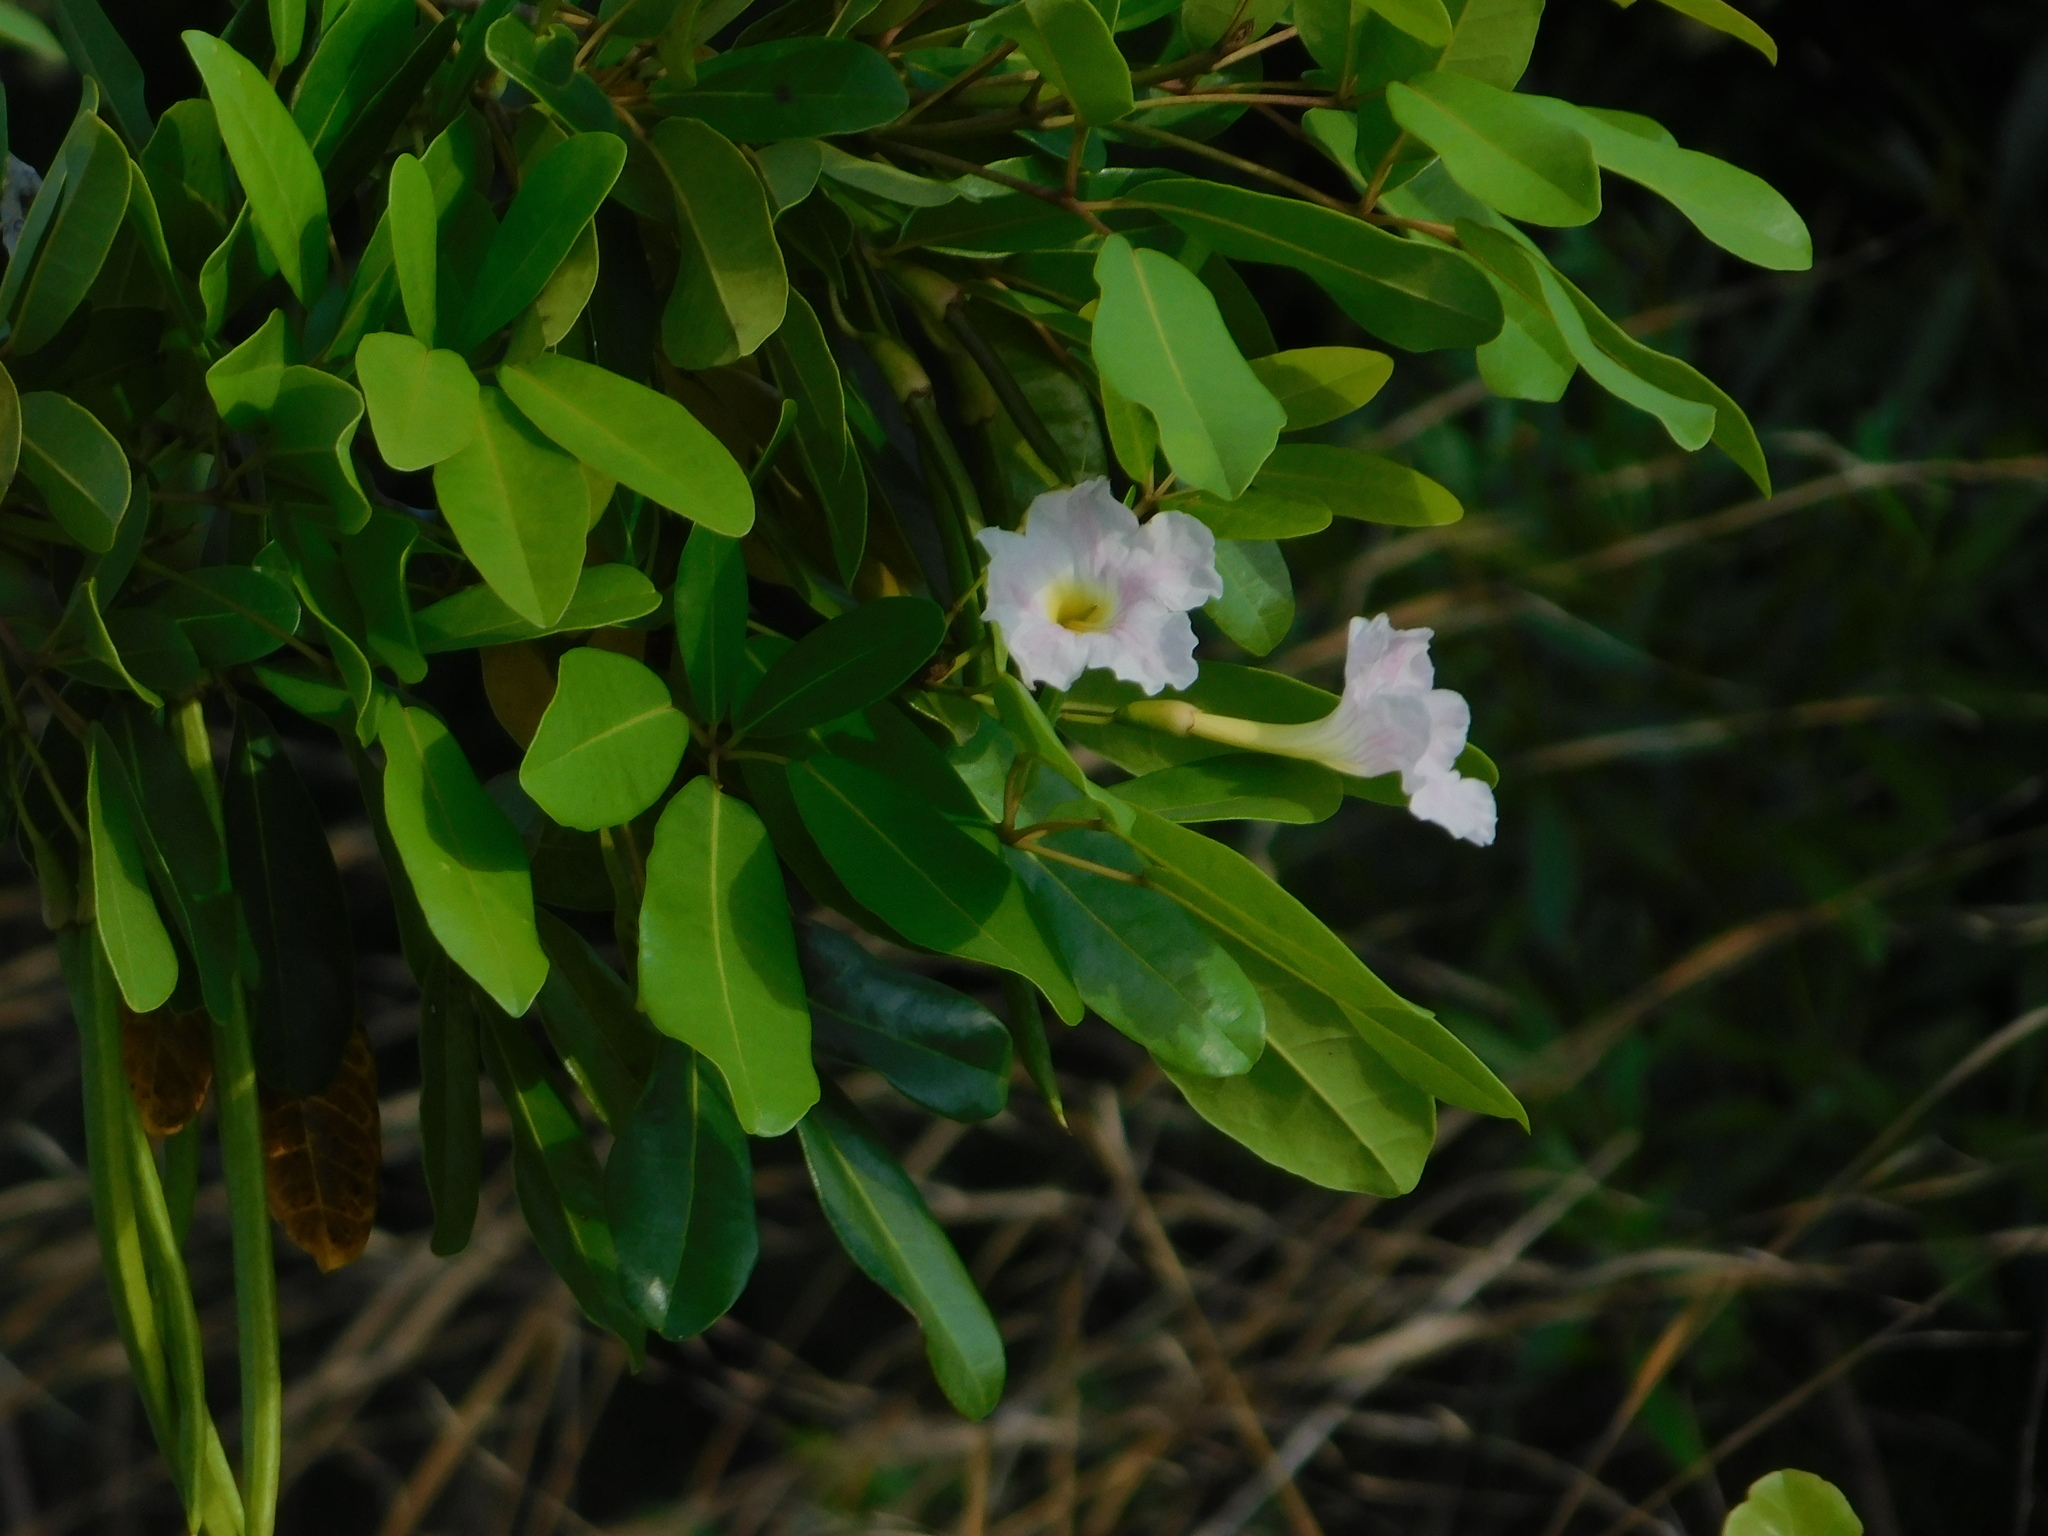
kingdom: Plantae
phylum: Tracheophyta
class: Magnoliopsida
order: Lamiales
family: Bignoniaceae
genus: Tabebuia
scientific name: Tabebuia heterophylla
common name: White cedar
